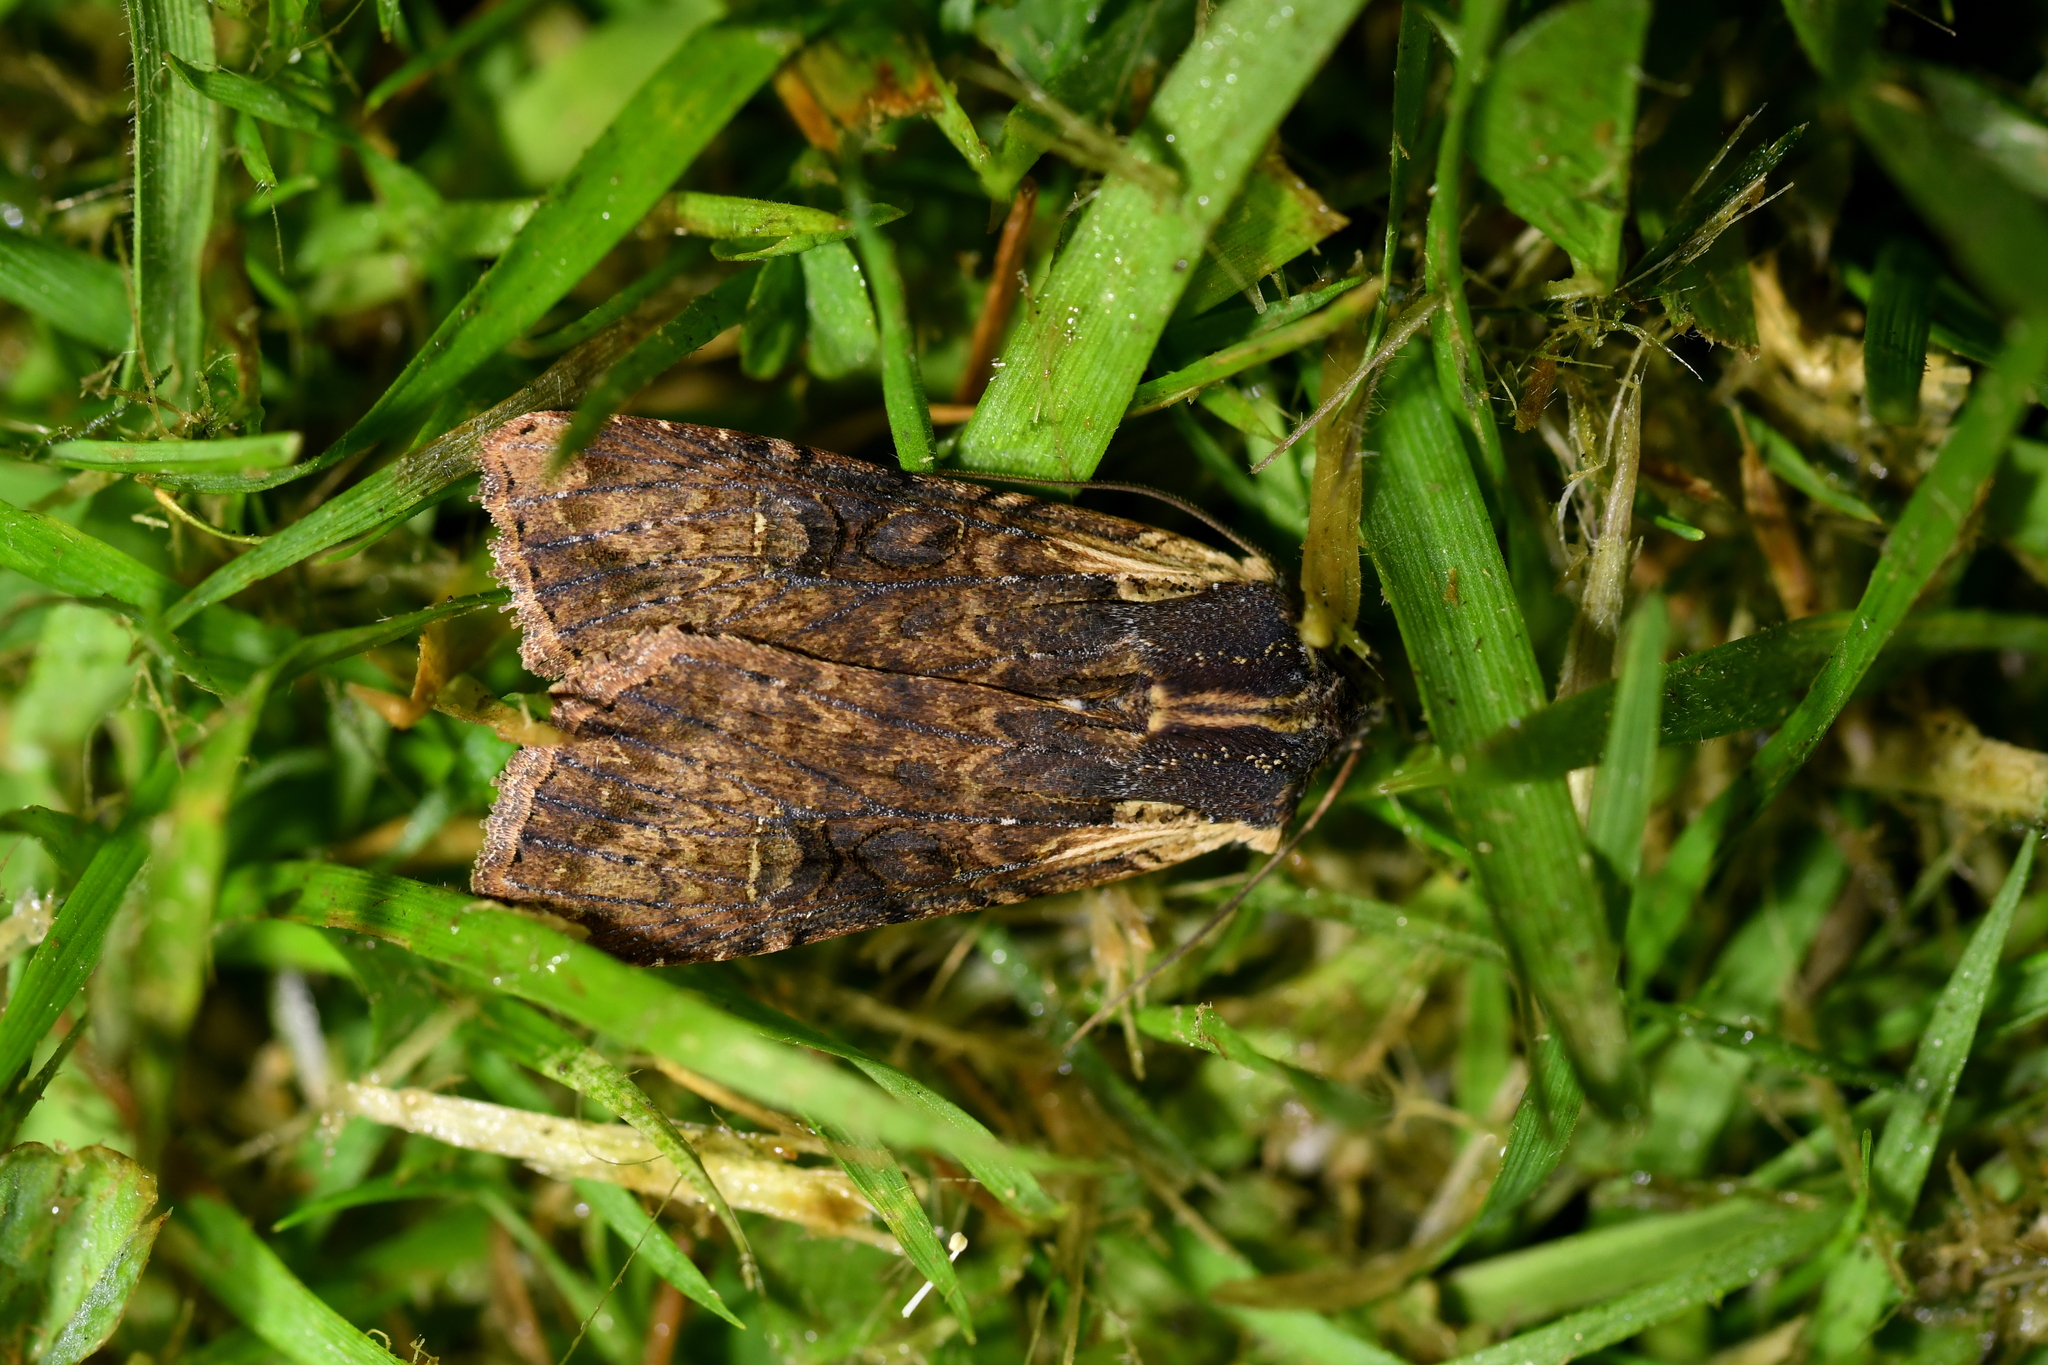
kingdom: Animalia
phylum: Arthropoda
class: Insecta
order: Lepidoptera
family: Noctuidae
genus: Ichneutica
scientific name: Ichneutica omoplaca
